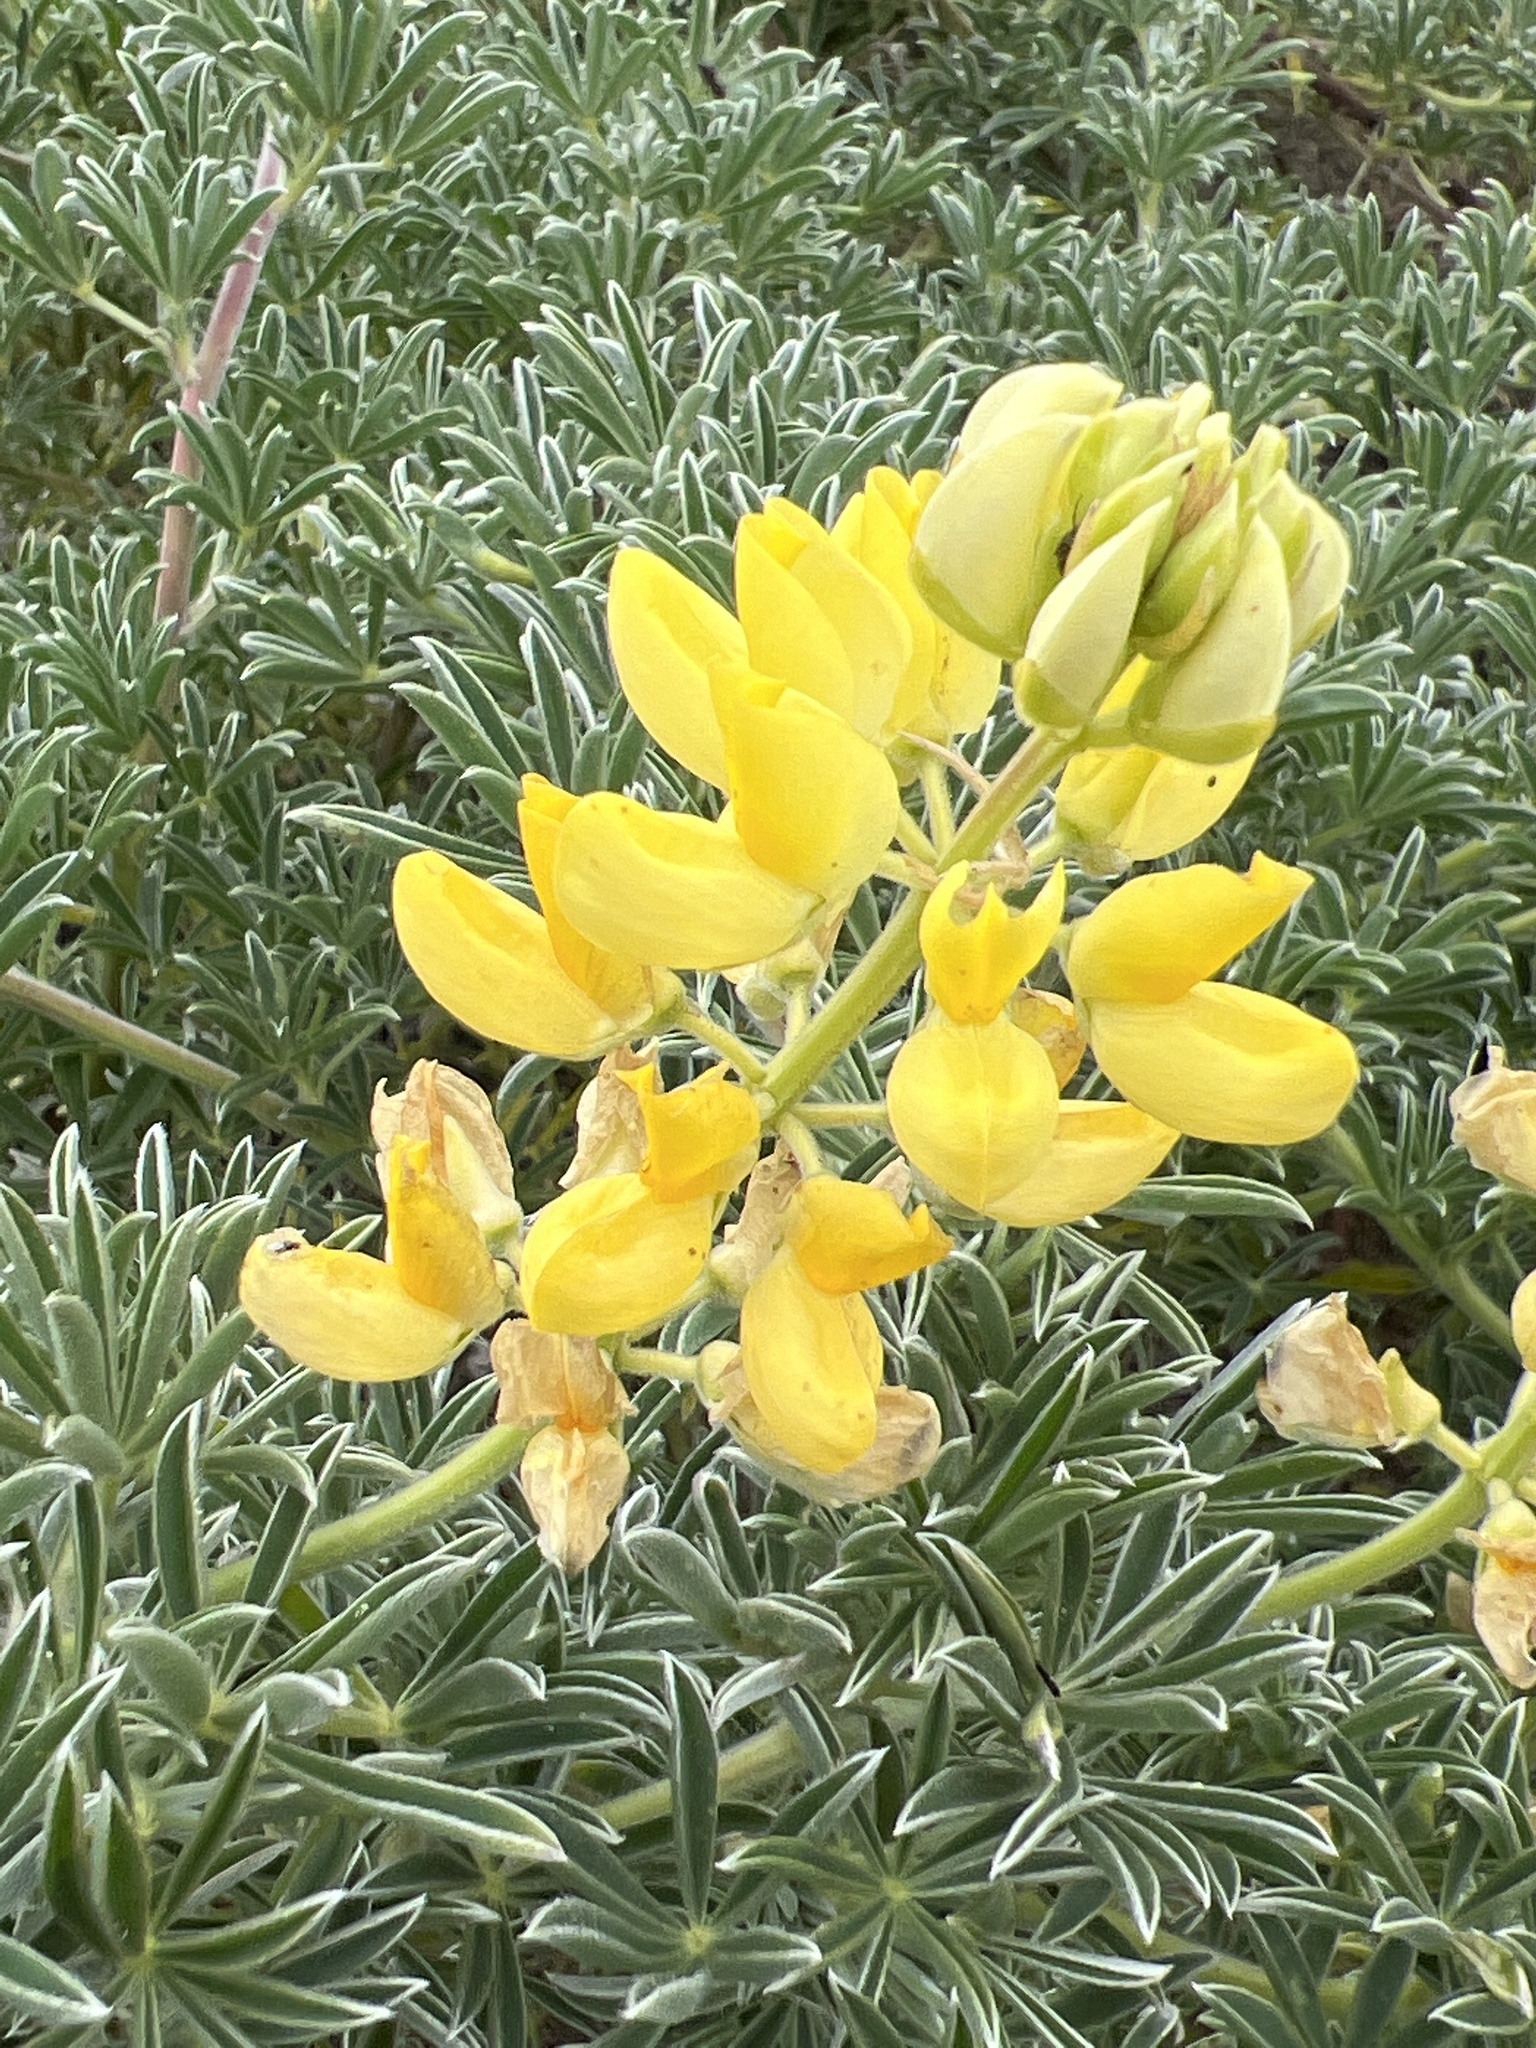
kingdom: Plantae
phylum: Tracheophyta
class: Magnoliopsida
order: Fabales
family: Fabaceae
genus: Lupinus
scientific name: Lupinus arboreus
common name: Yellow bush lupine
